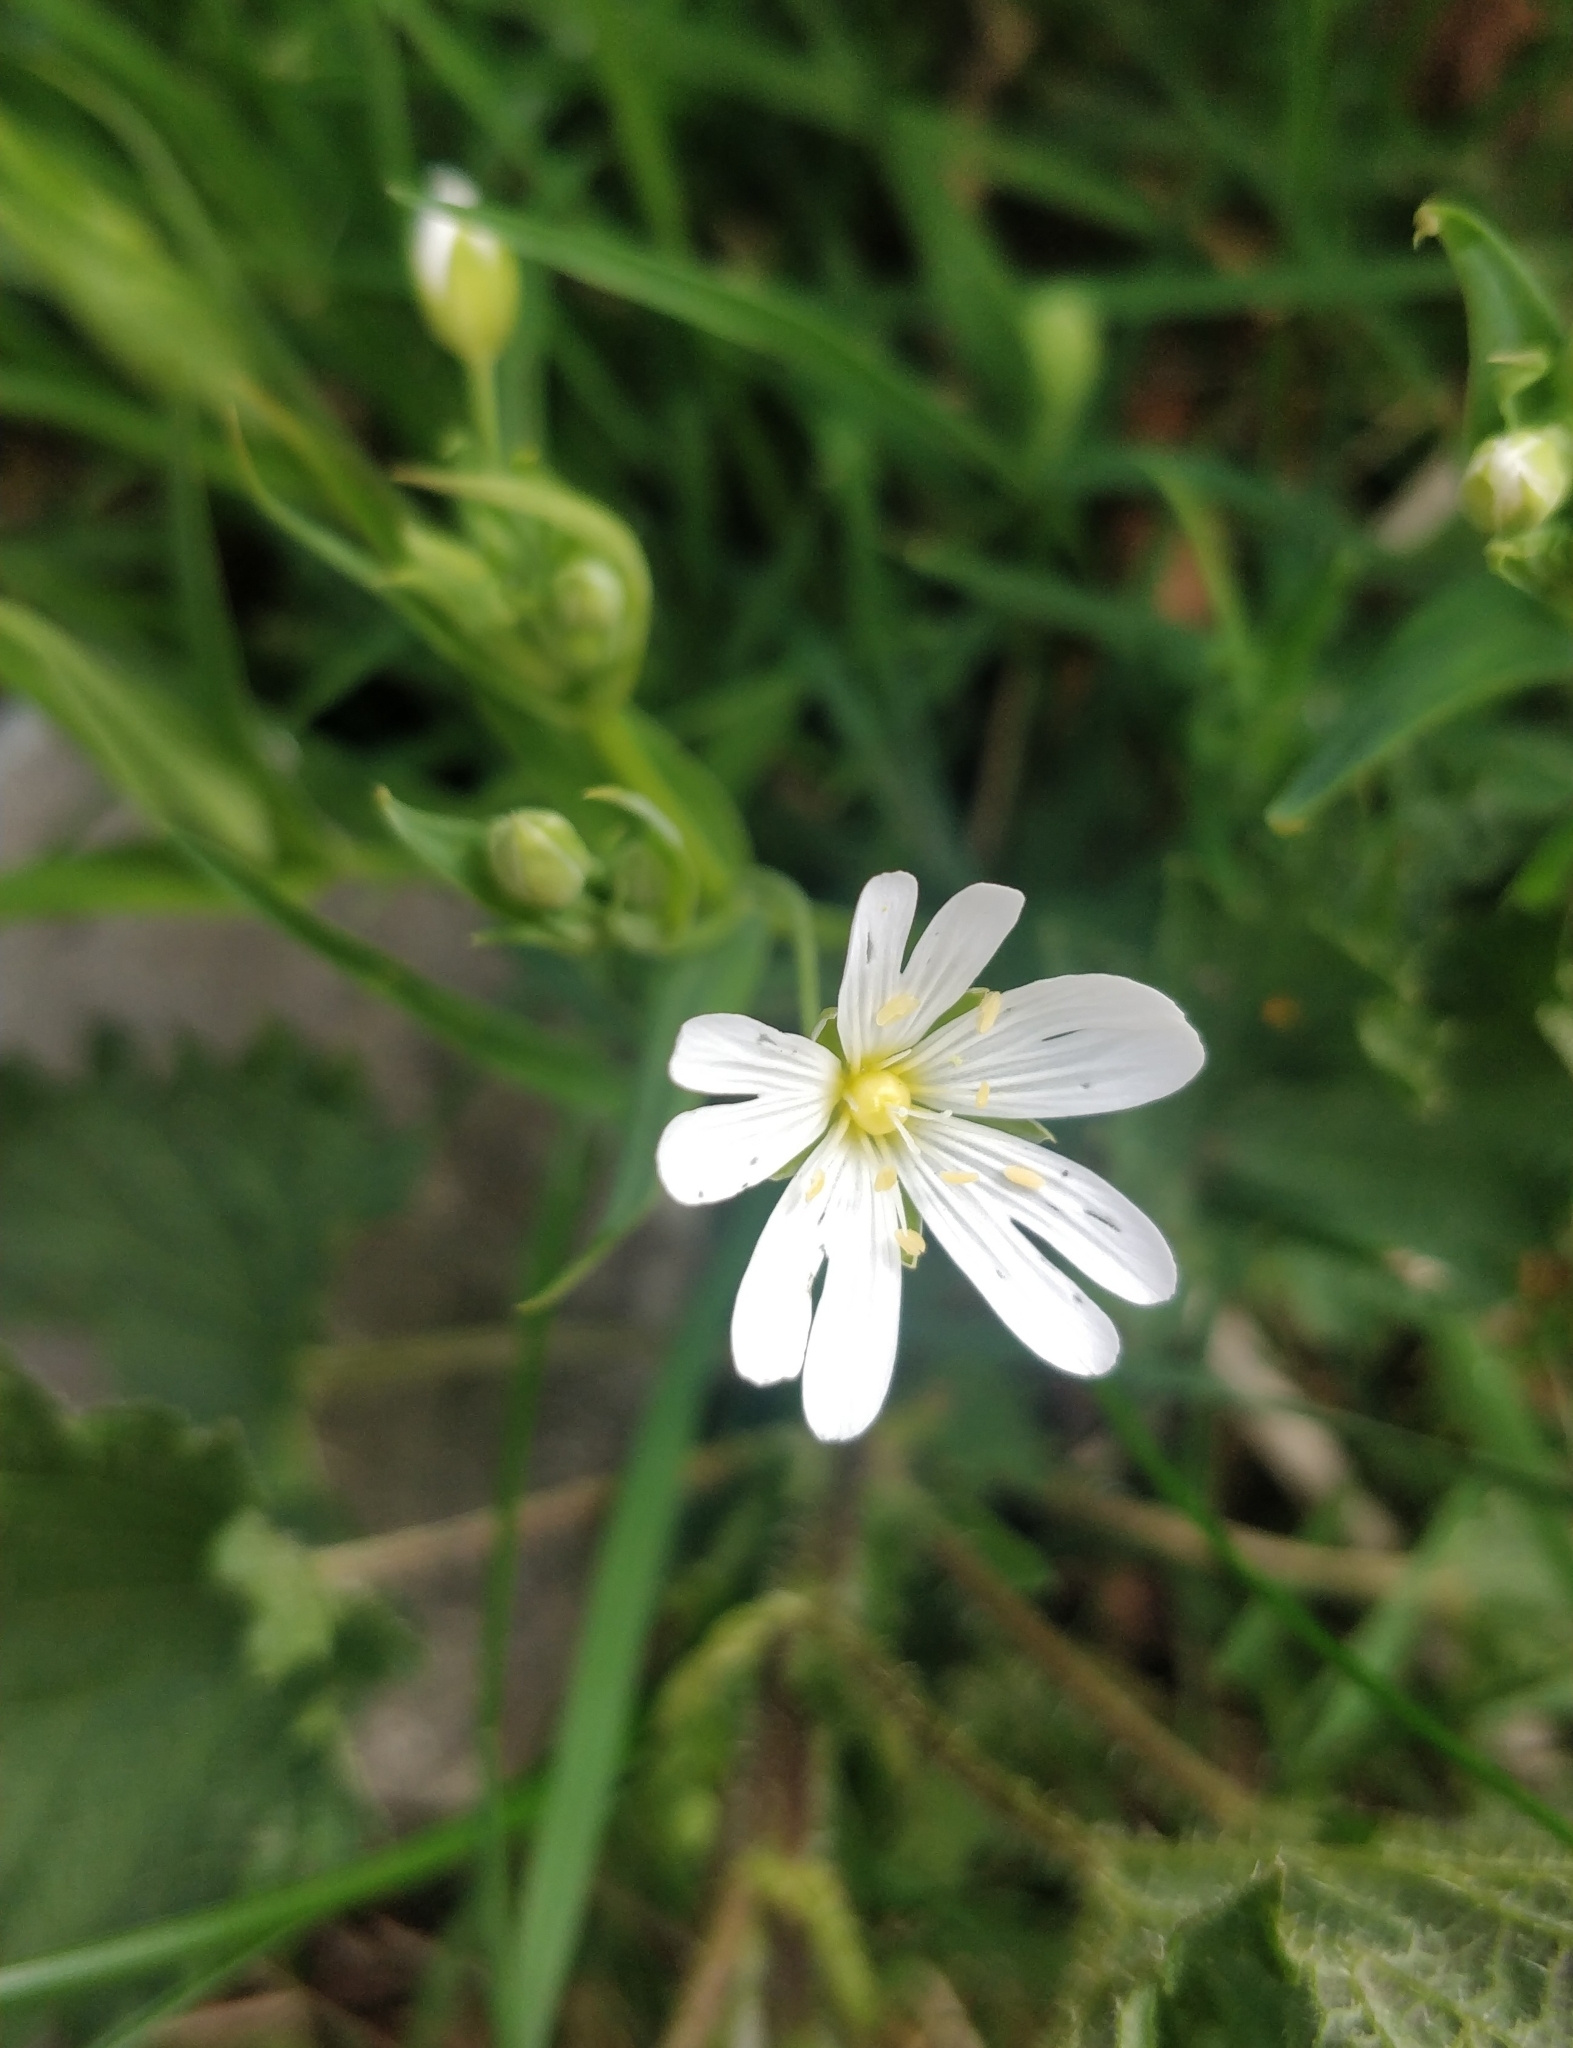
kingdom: Plantae
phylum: Tracheophyta
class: Magnoliopsida
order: Caryophyllales
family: Caryophyllaceae
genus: Rabelera
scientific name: Rabelera holostea
